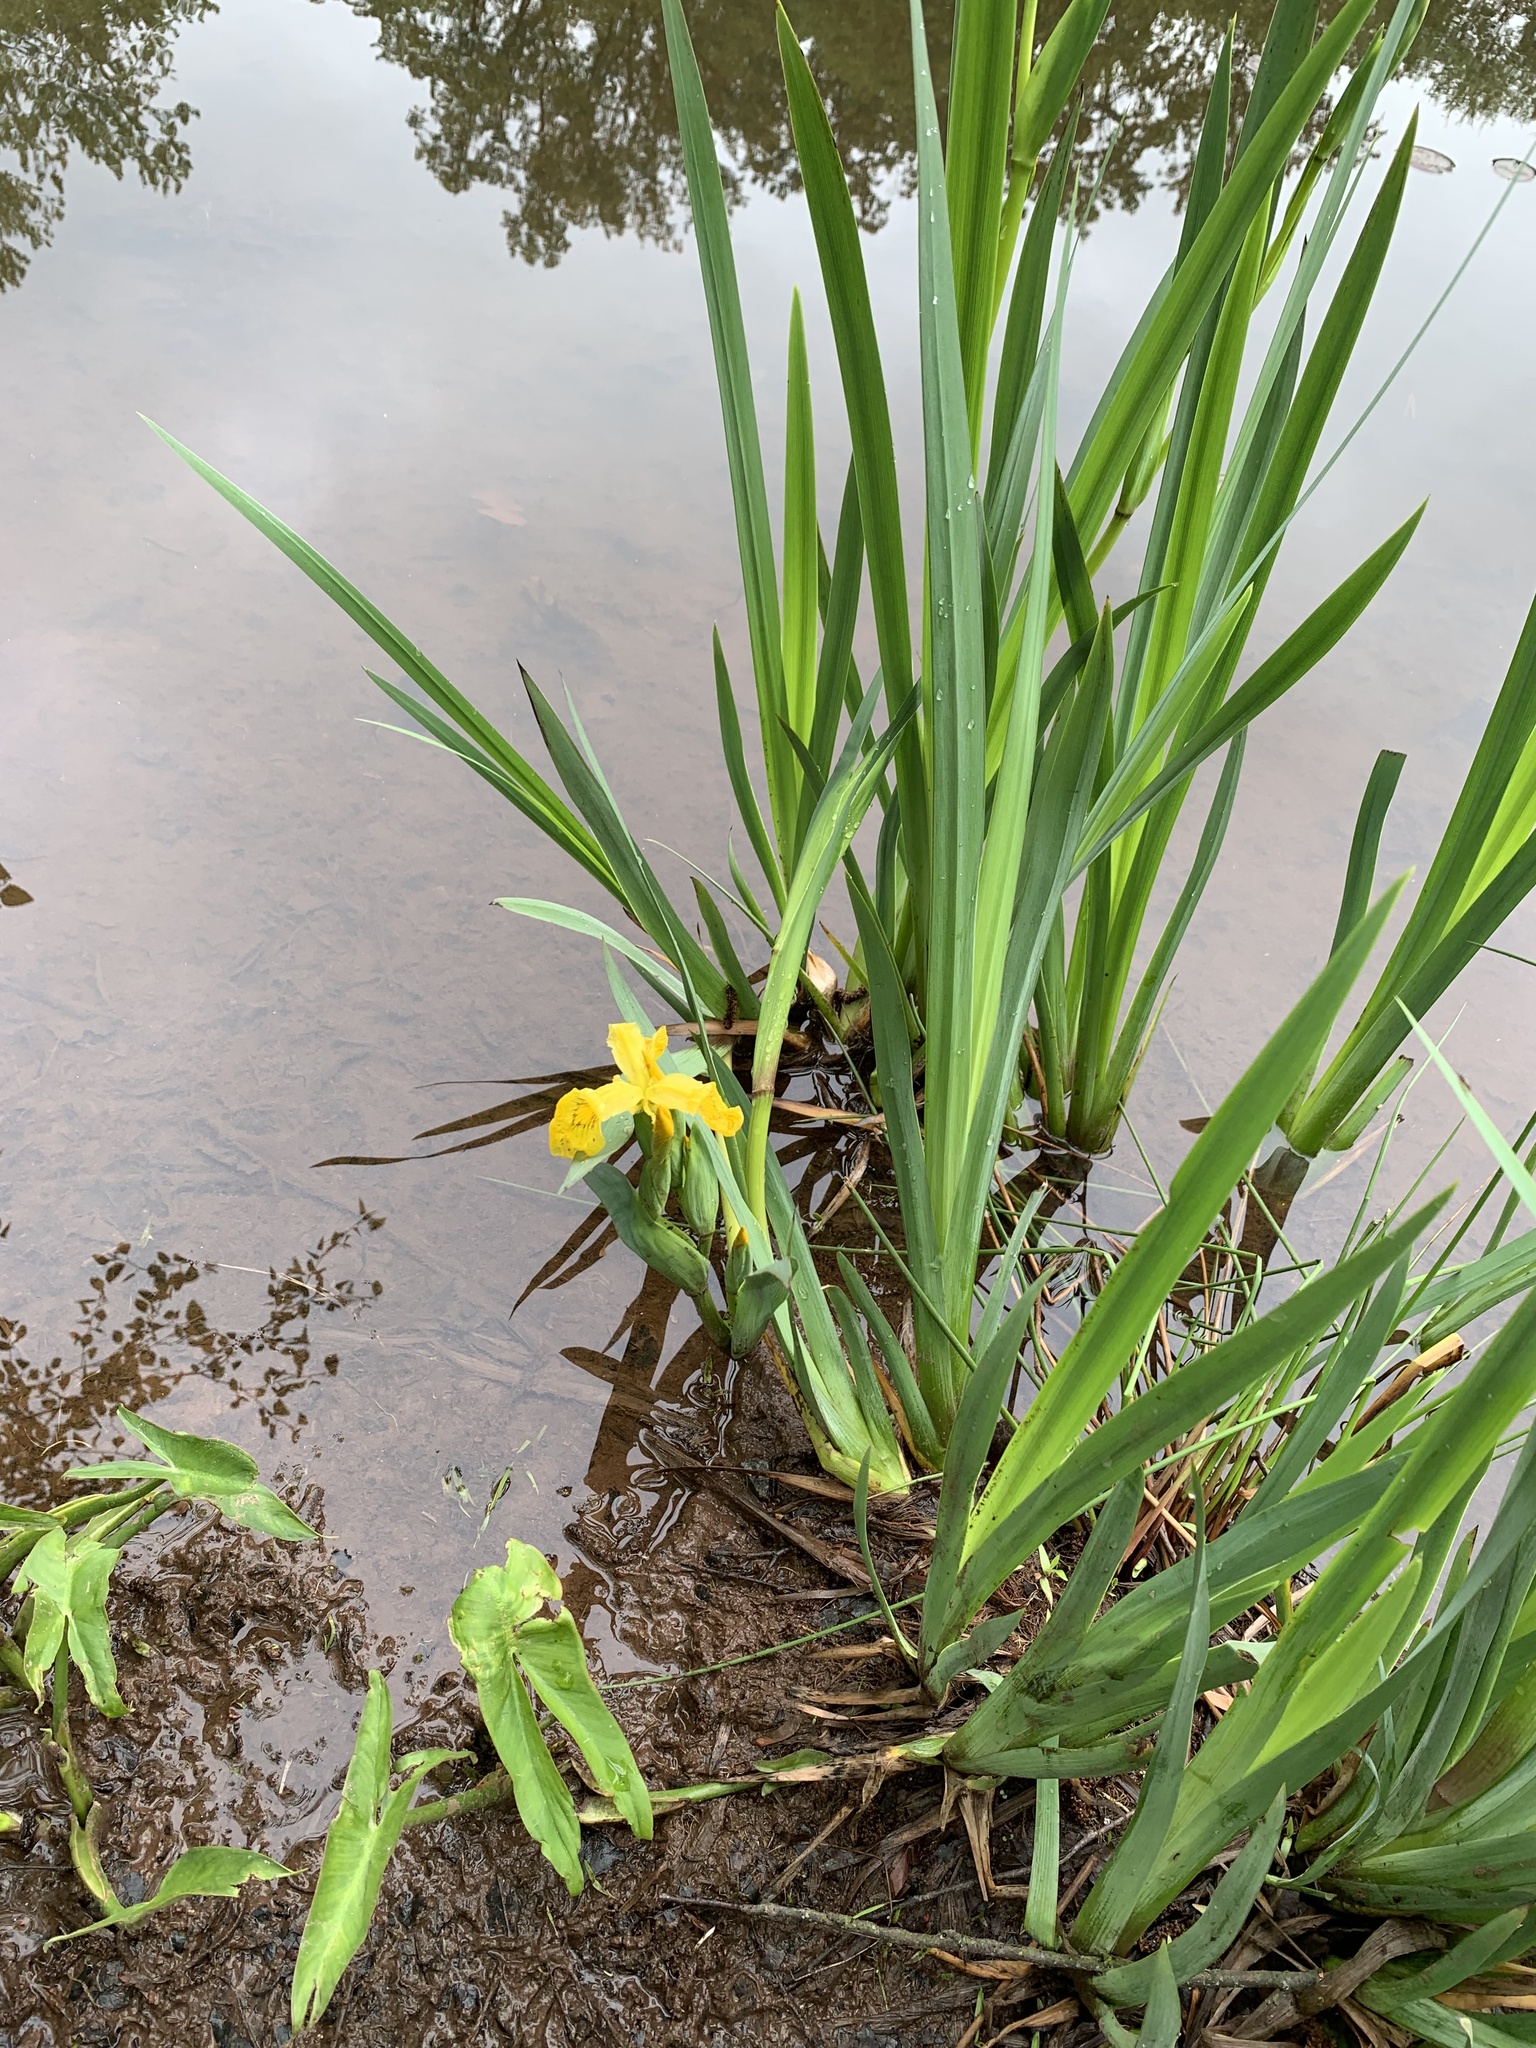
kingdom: Plantae
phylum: Tracheophyta
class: Liliopsida
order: Asparagales
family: Iridaceae
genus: Iris
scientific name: Iris pseudacorus
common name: Yellow flag
